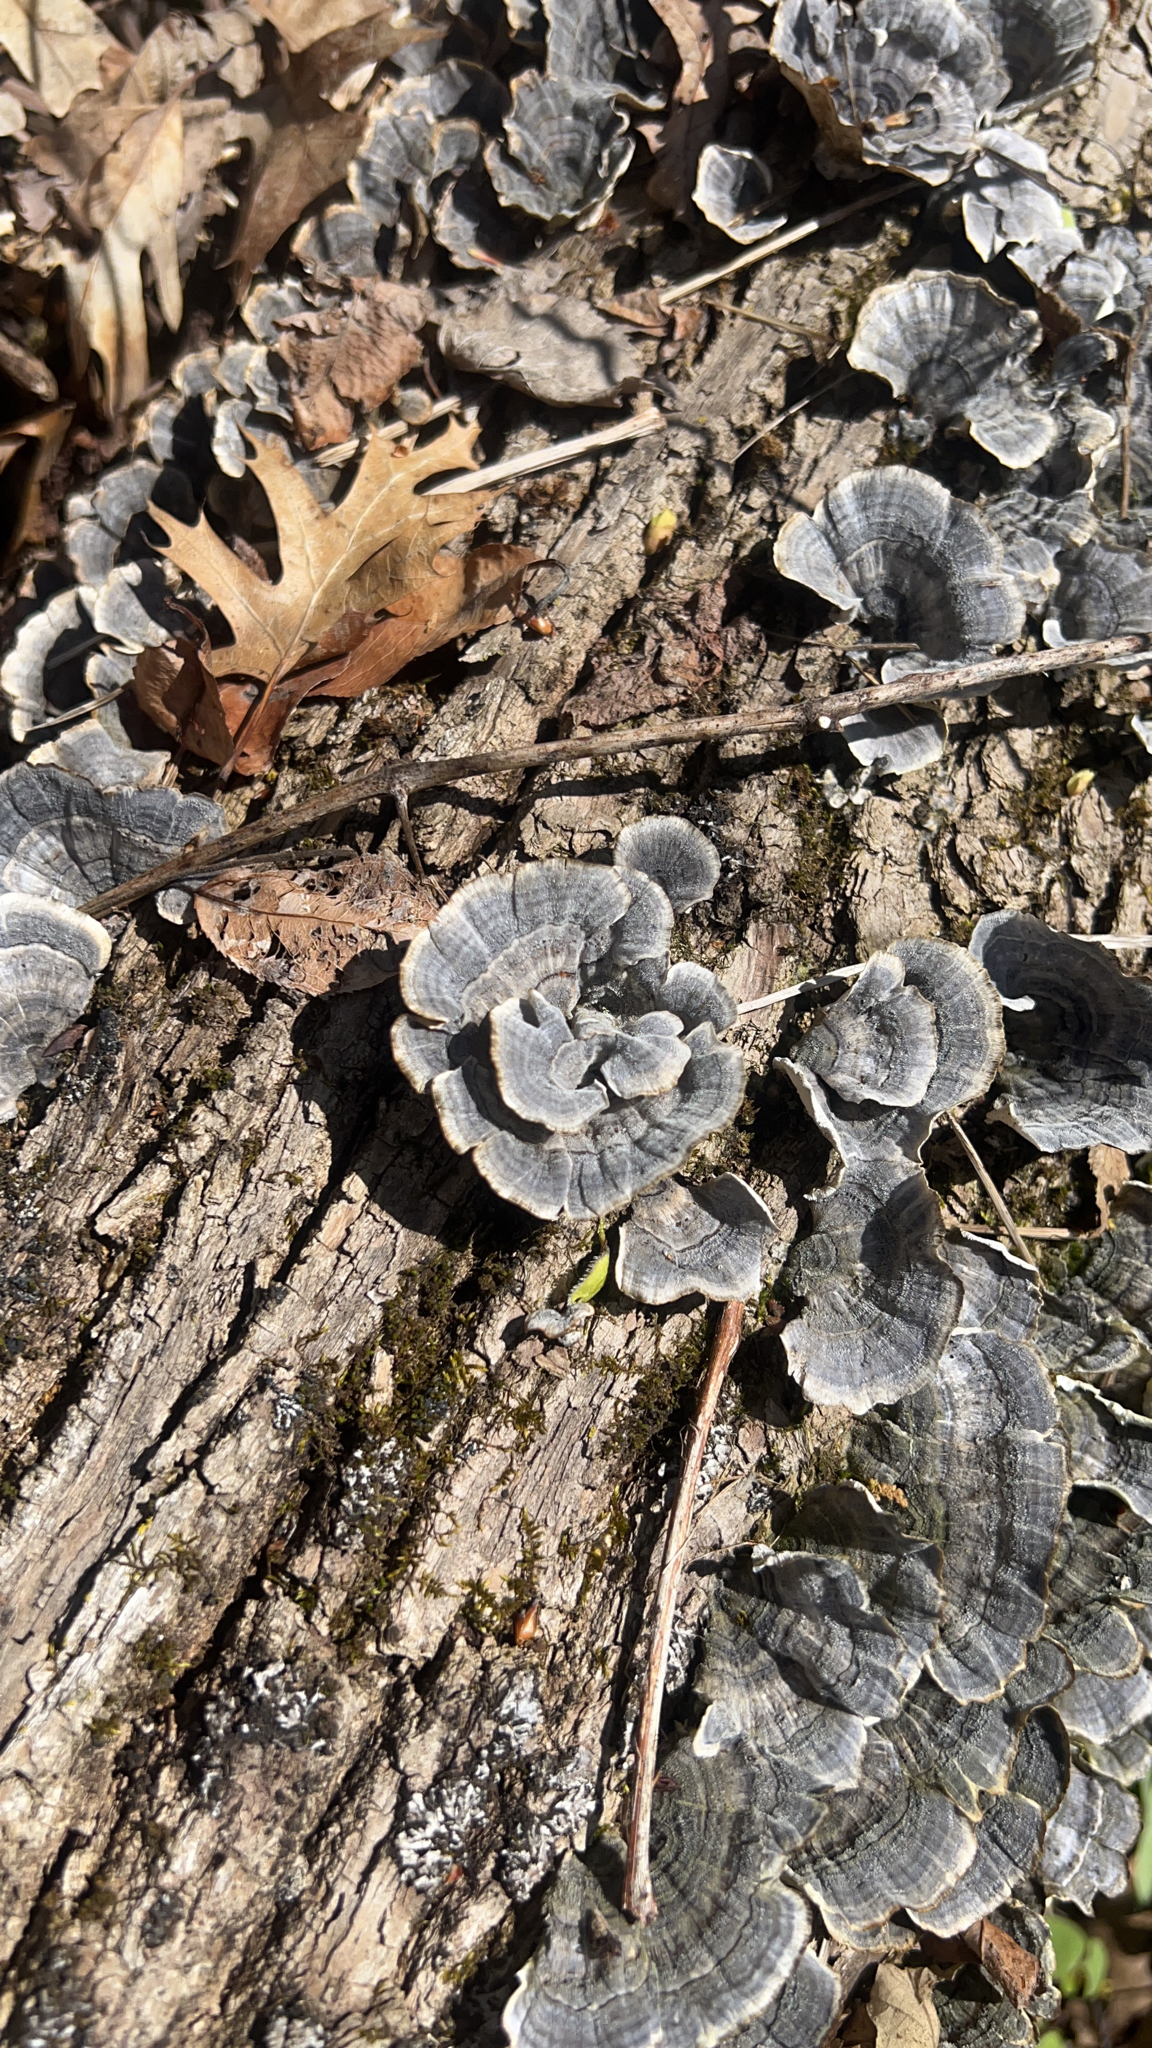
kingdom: Fungi
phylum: Basidiomycota
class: Agaricomycetes
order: Polyporales
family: Polyporaceae
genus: Trametes
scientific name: Trametes versicolor
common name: Turkeytail
